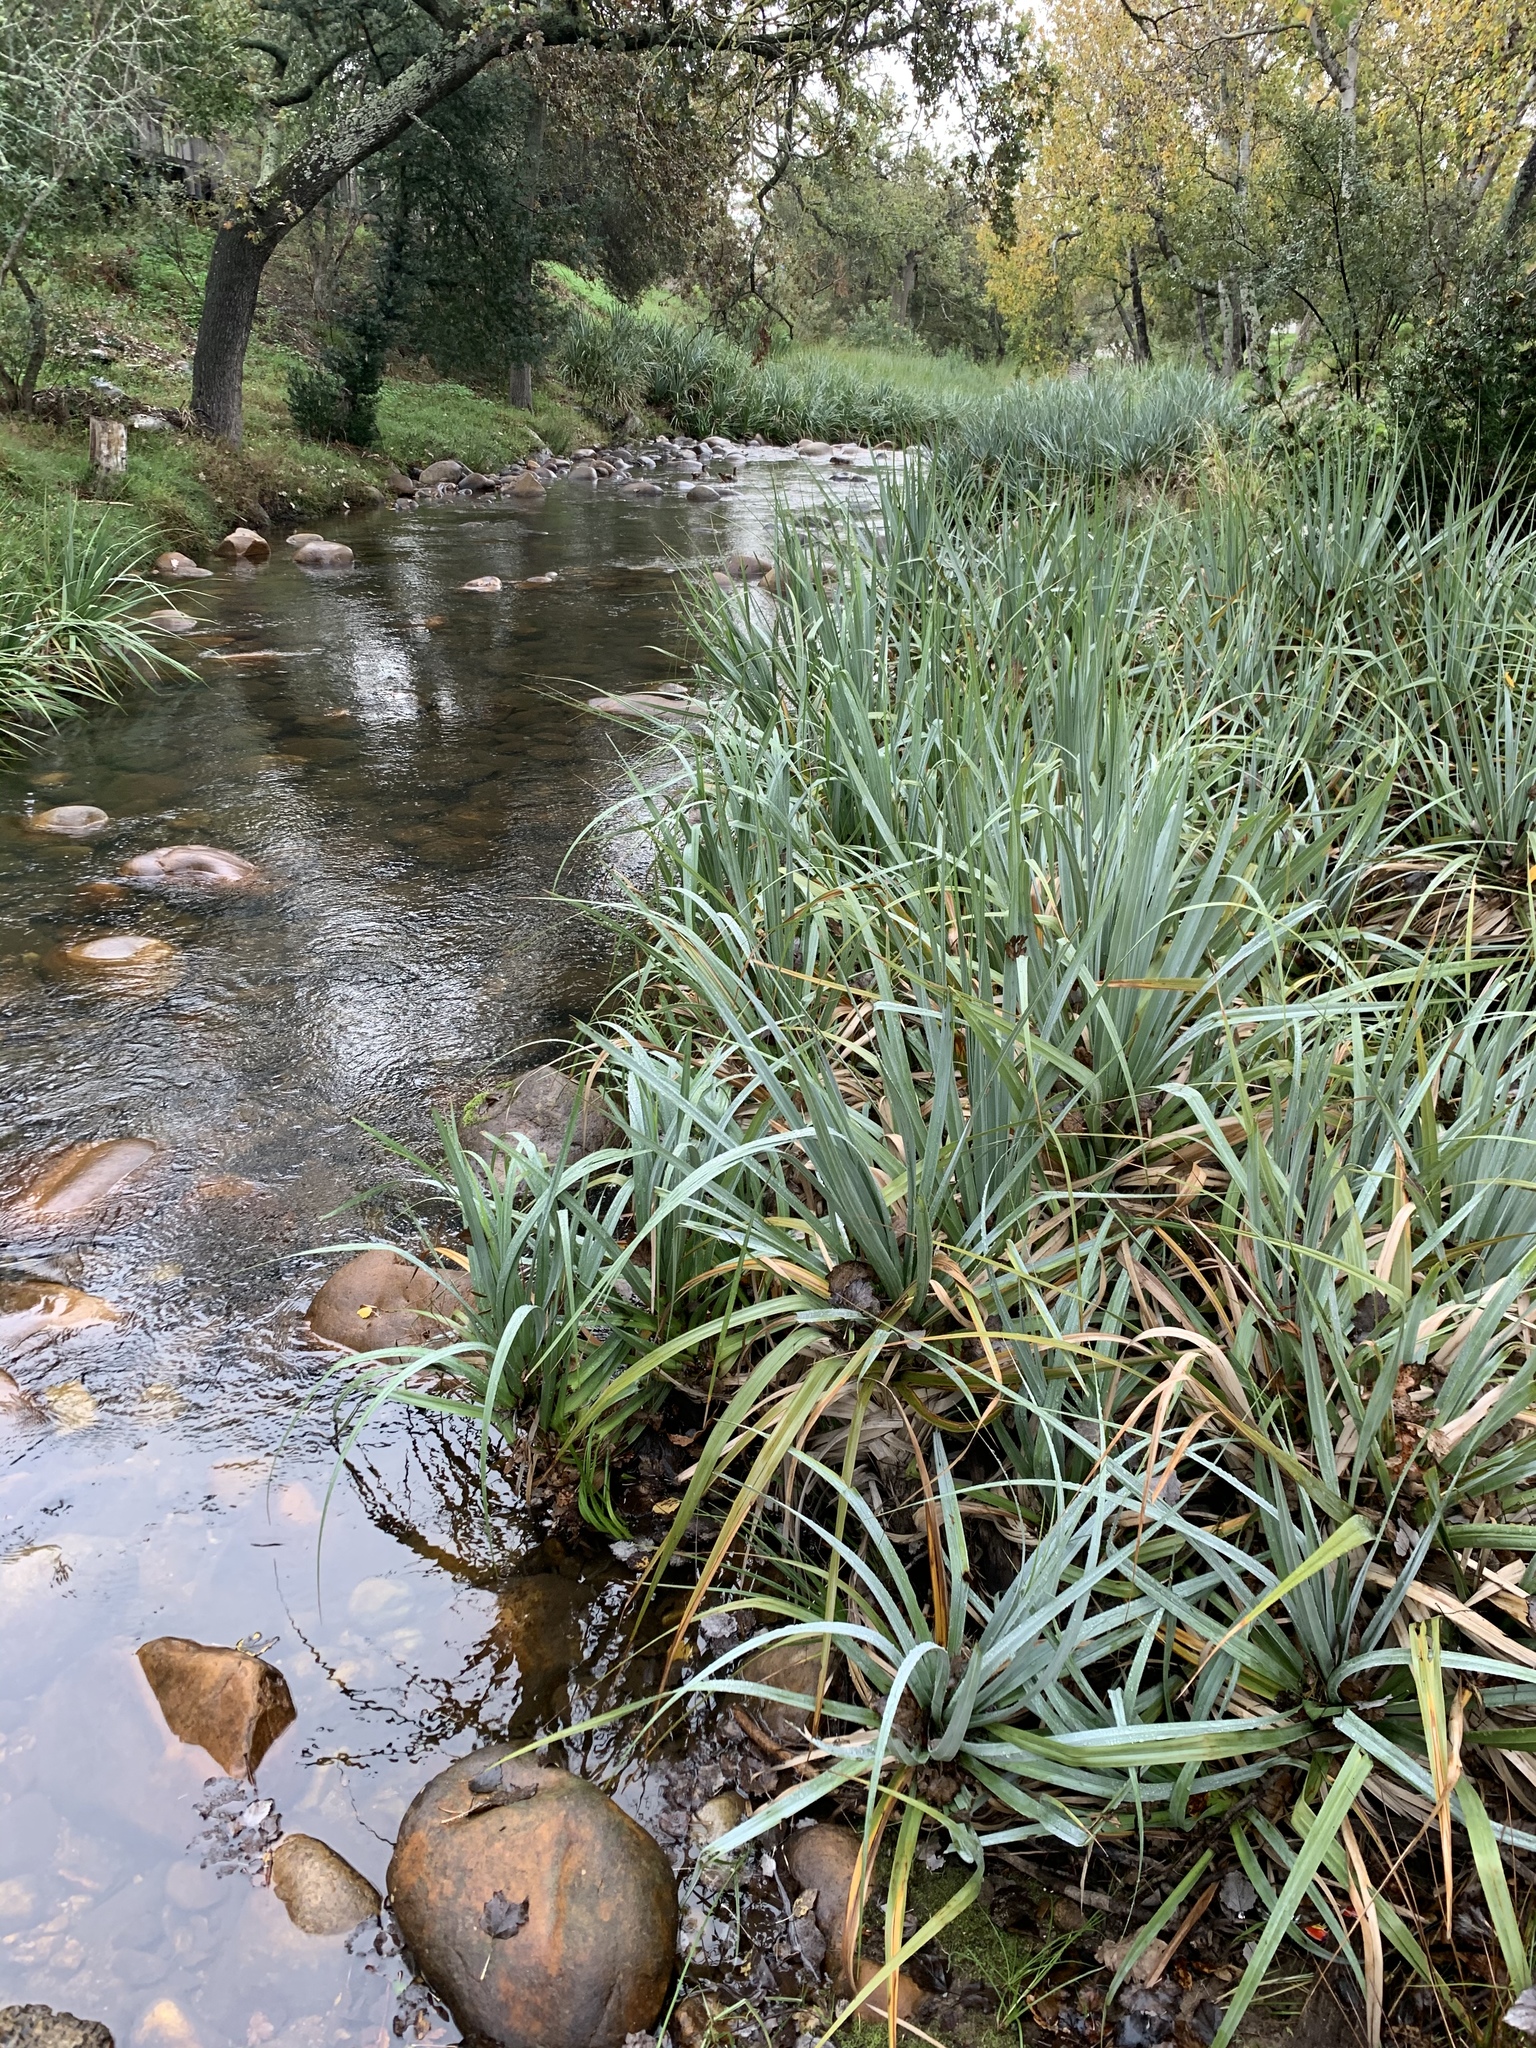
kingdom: Plantae
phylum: Tracheophyta
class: Liliopsida
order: Poales
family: Thurniaceae
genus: Prionium
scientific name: Prionium serratum
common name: Palmiet
